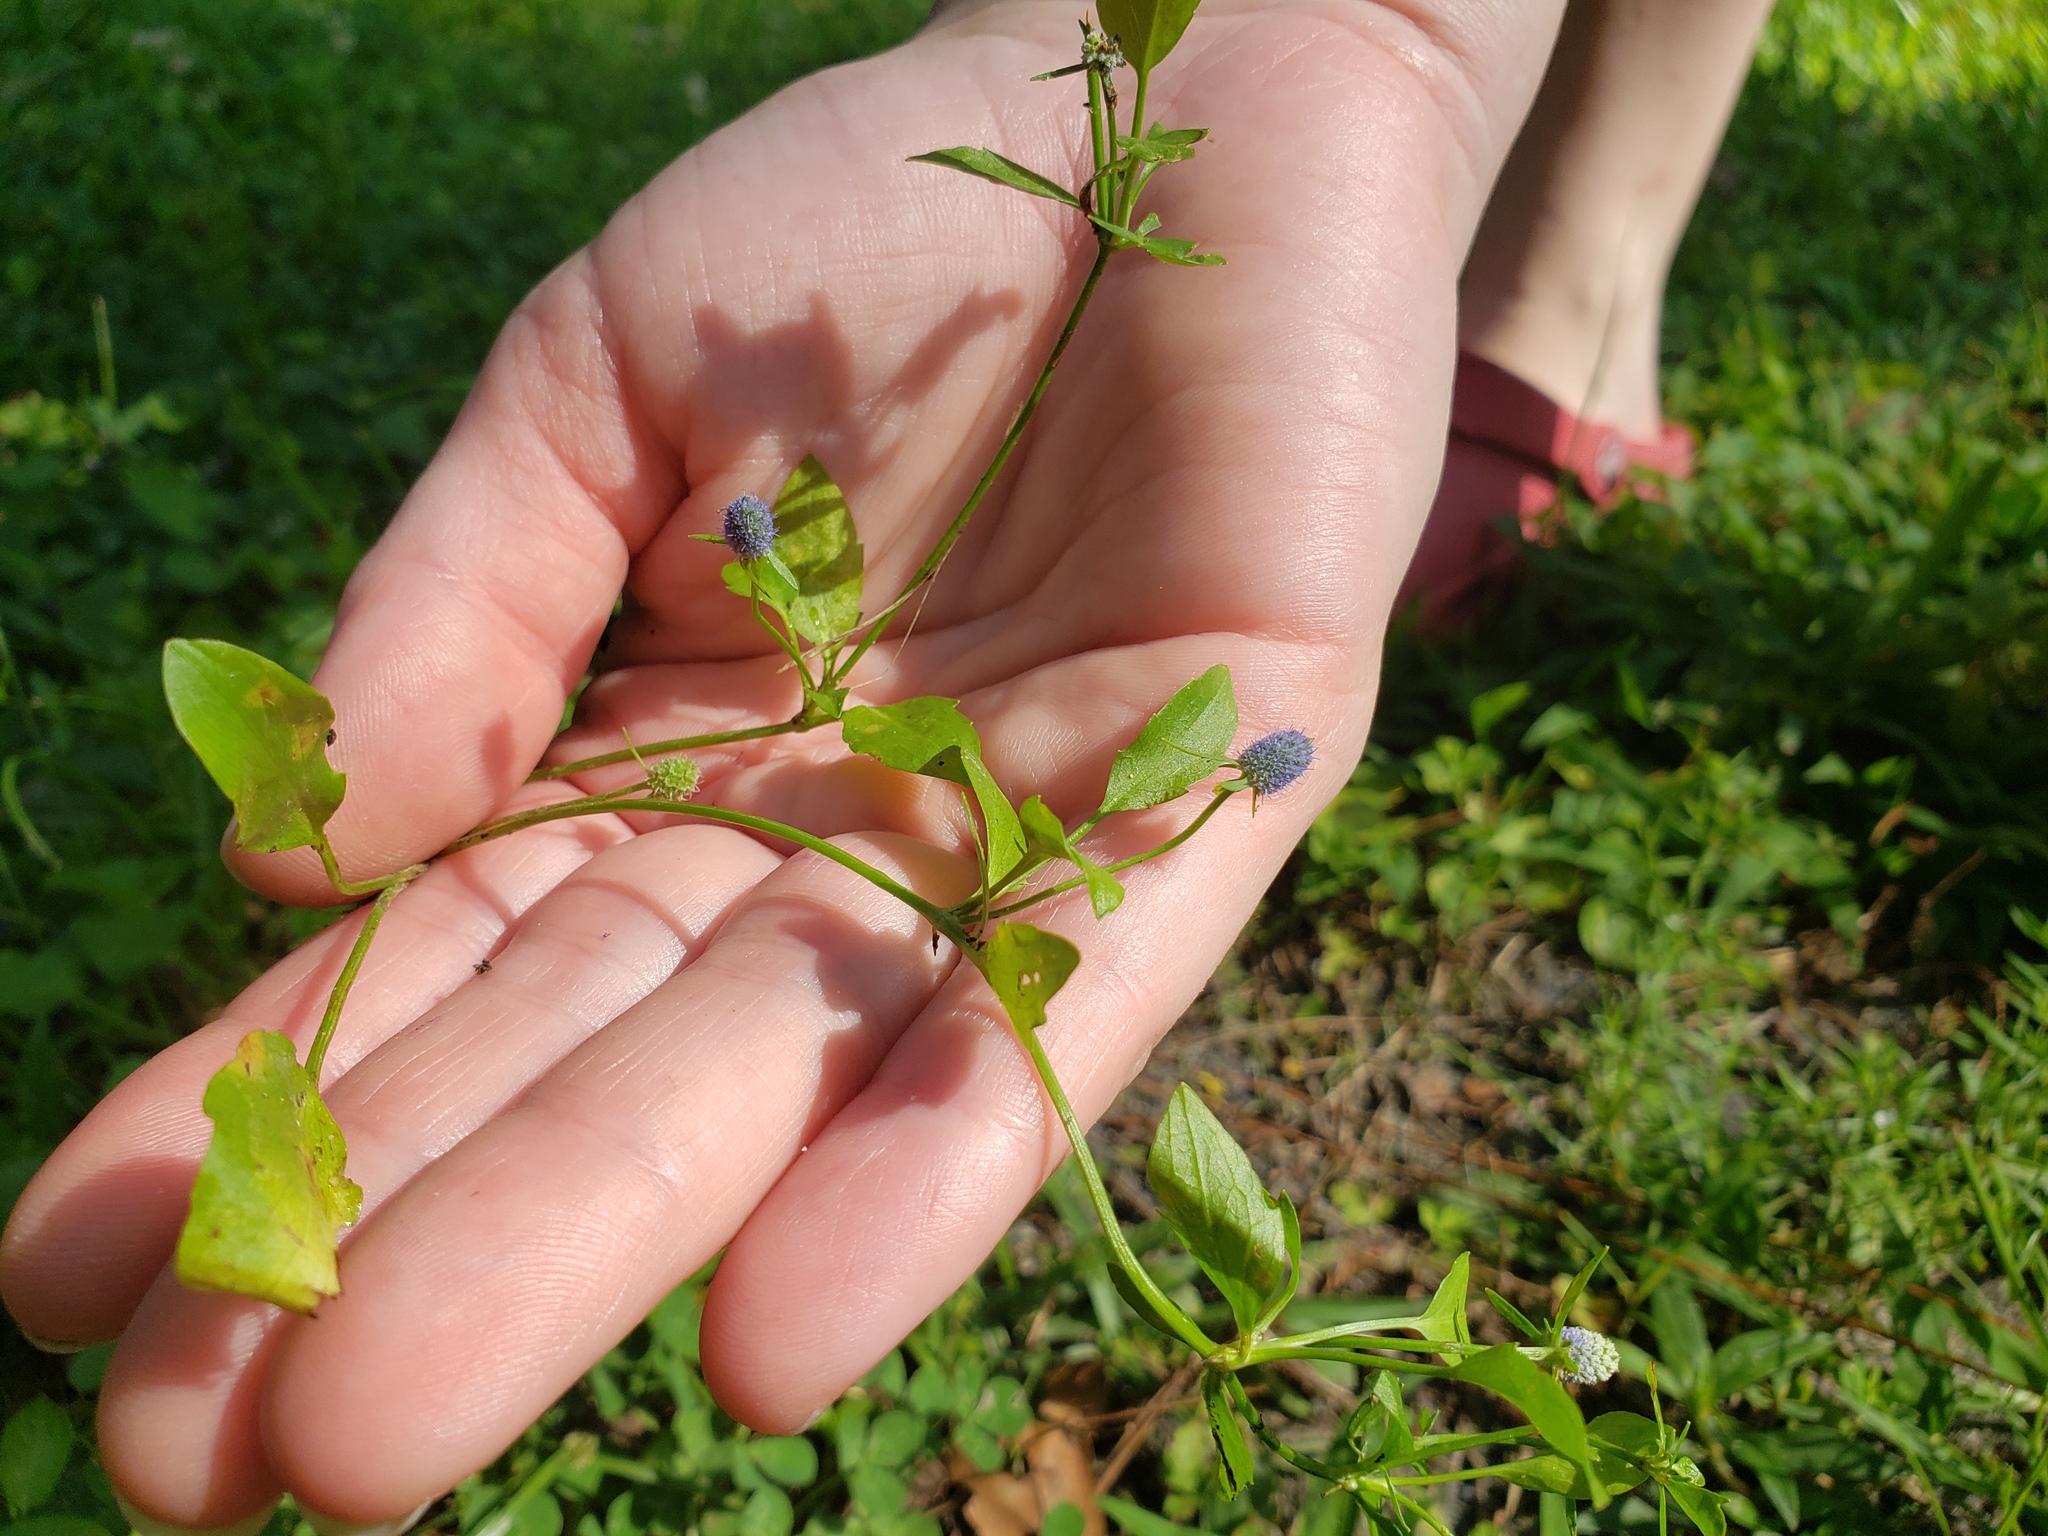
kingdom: Plantae
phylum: Tracheophyta
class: Magnoliopsida
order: Apiales
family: Apiaceae
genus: Eryngium
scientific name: Eryngium prostratum
